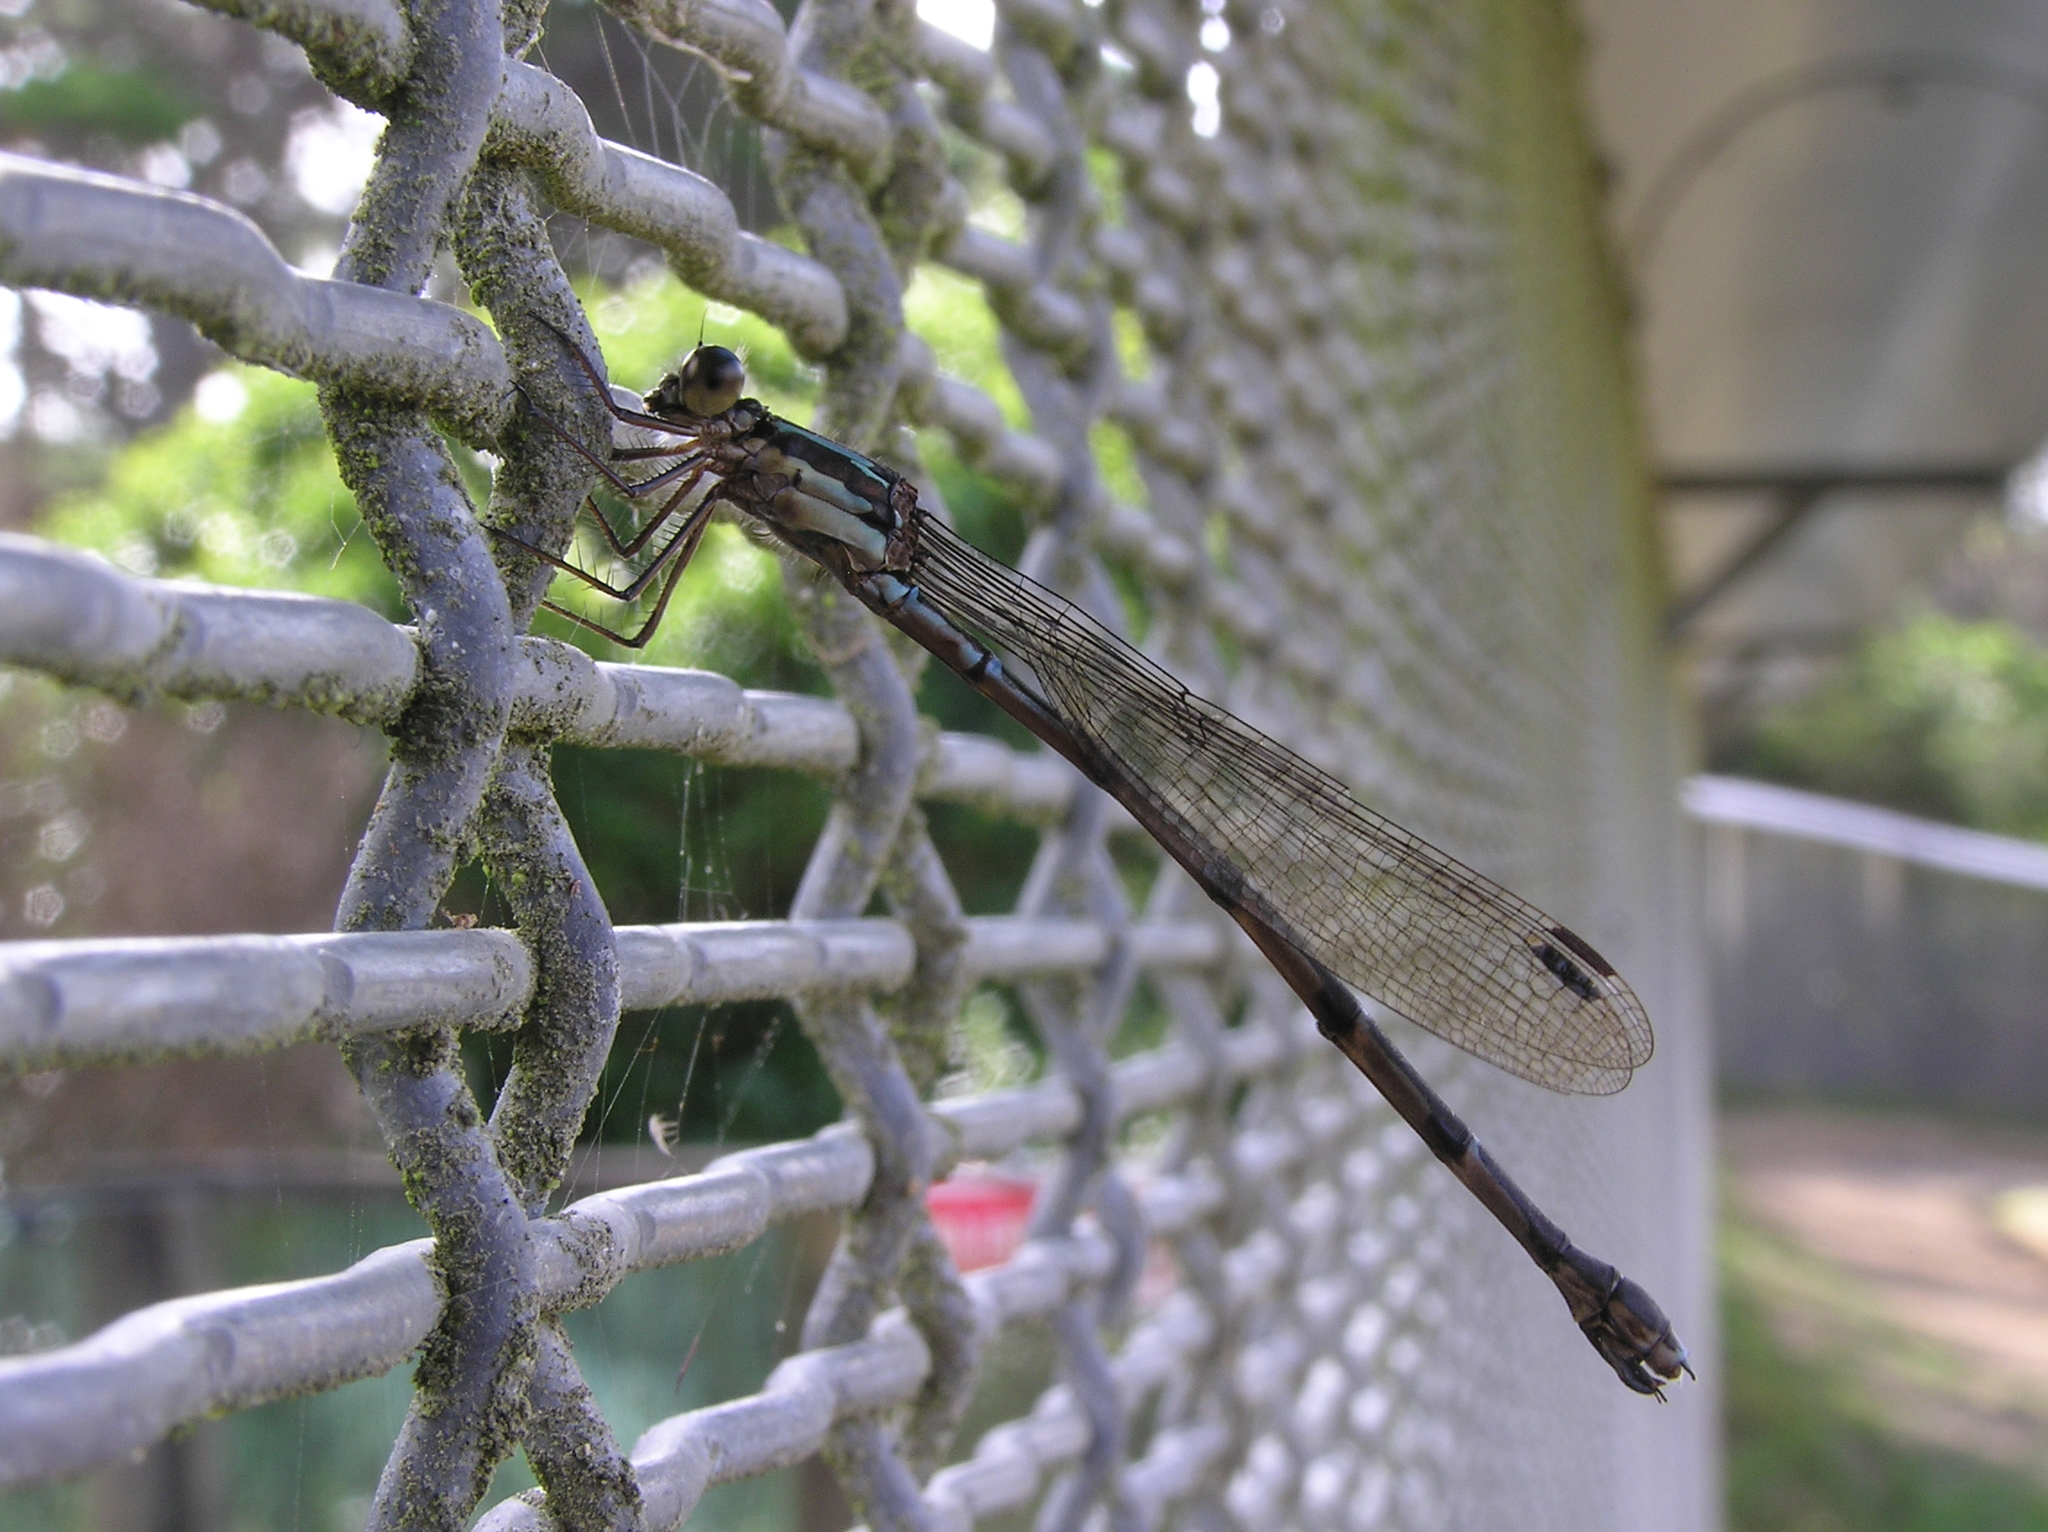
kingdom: Animalia
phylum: Arthropoda
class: Insecta
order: Odonata
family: Lestidae
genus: Austrolestes
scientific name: Austrolestes colensonis
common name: Blue damselfly
